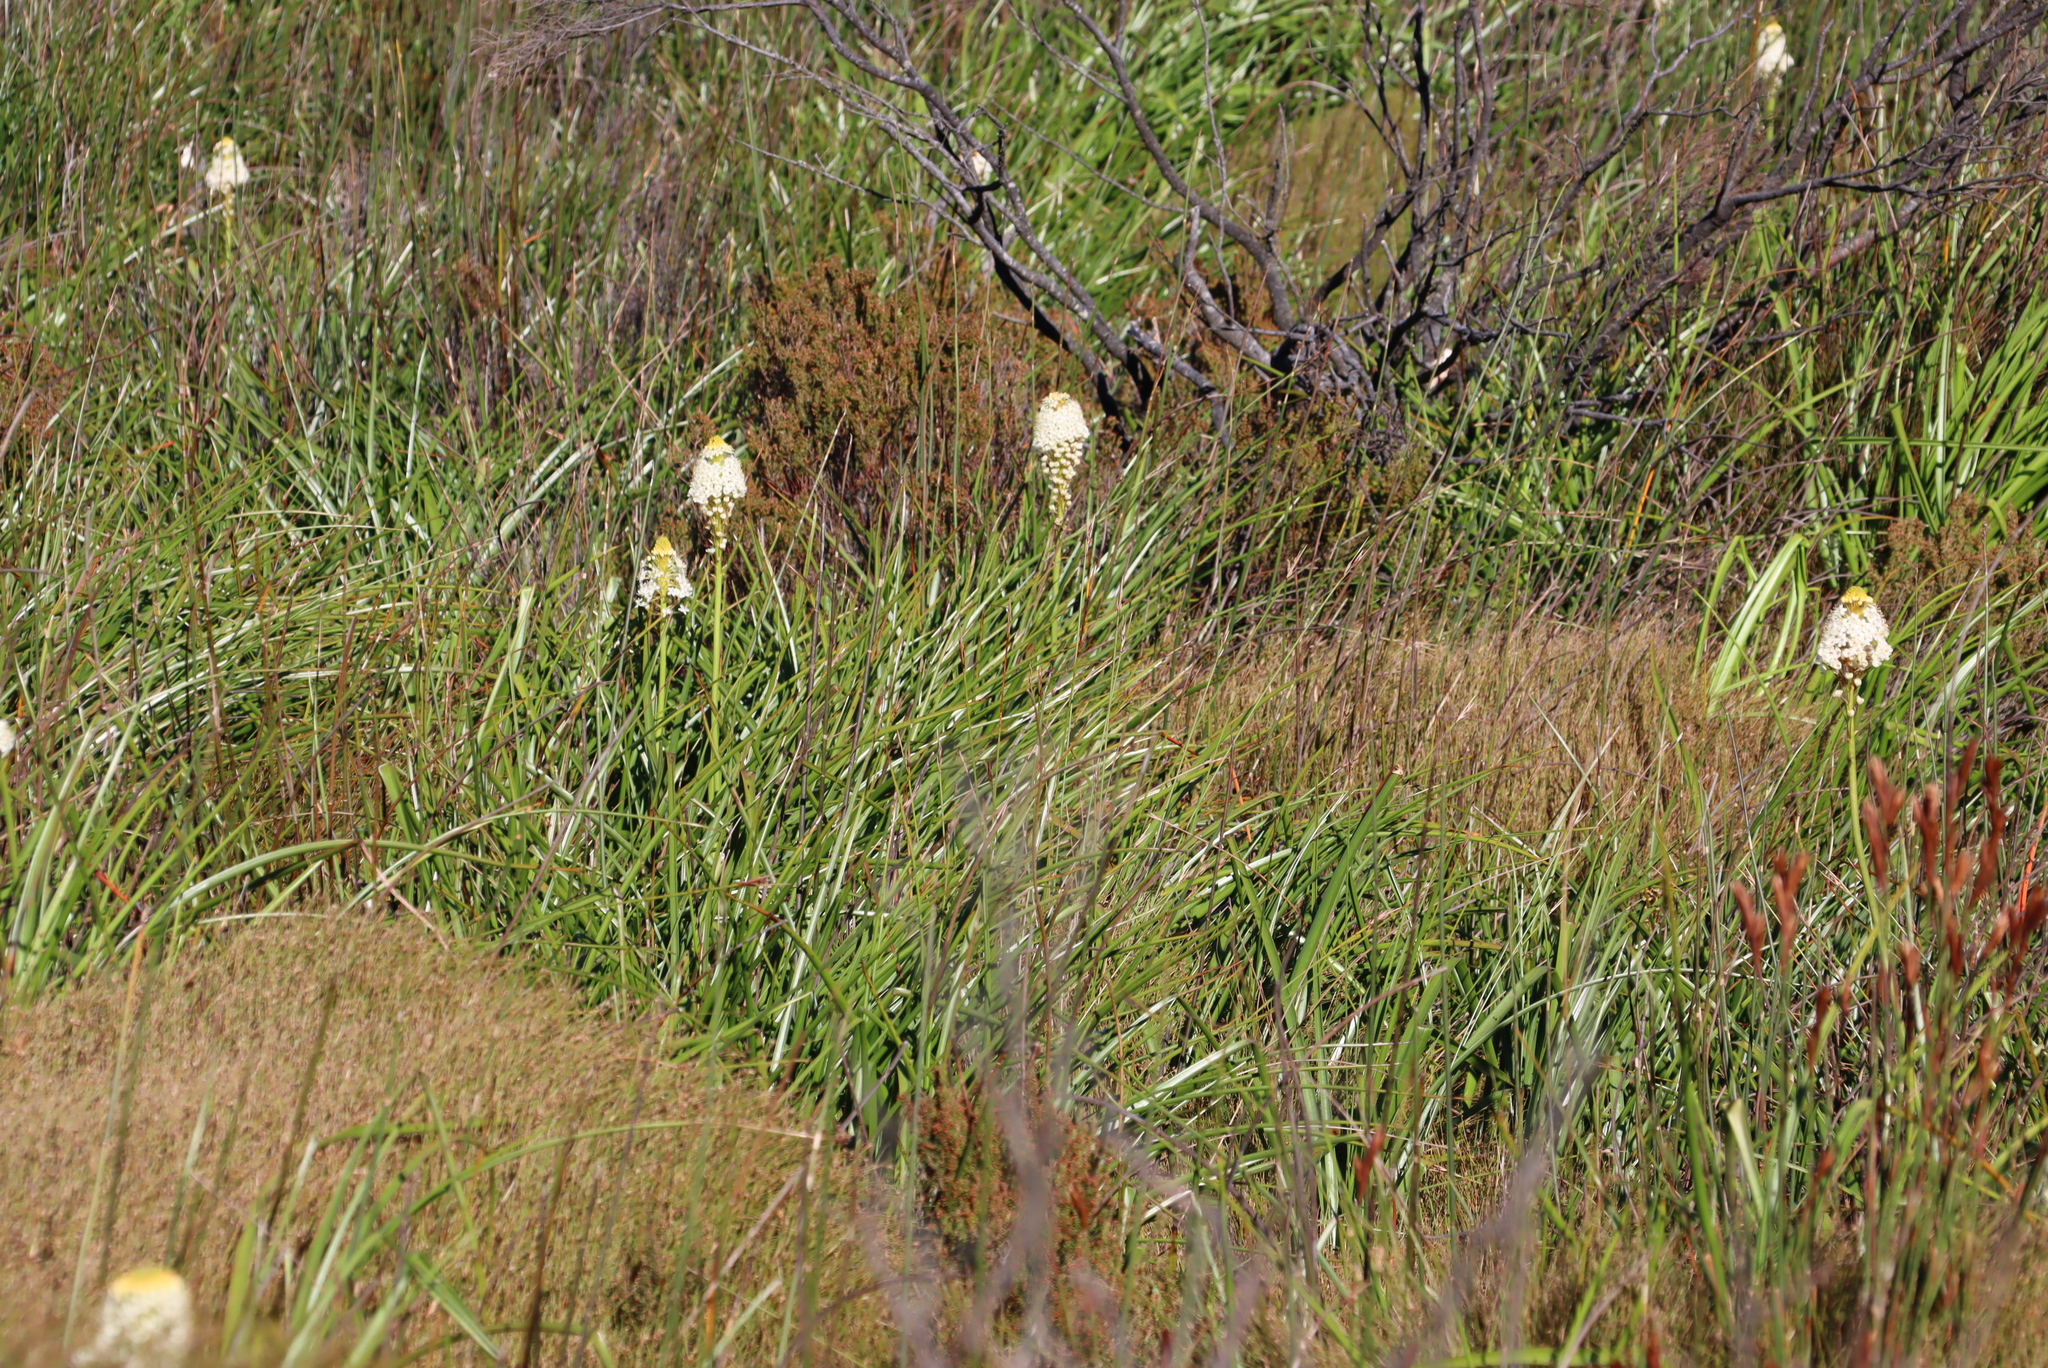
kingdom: Plantae
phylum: Tracheophyta
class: Liliopsida
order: Asparagales
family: Asphodelaceae
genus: Bulbinella
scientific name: Bulbinella nutans
